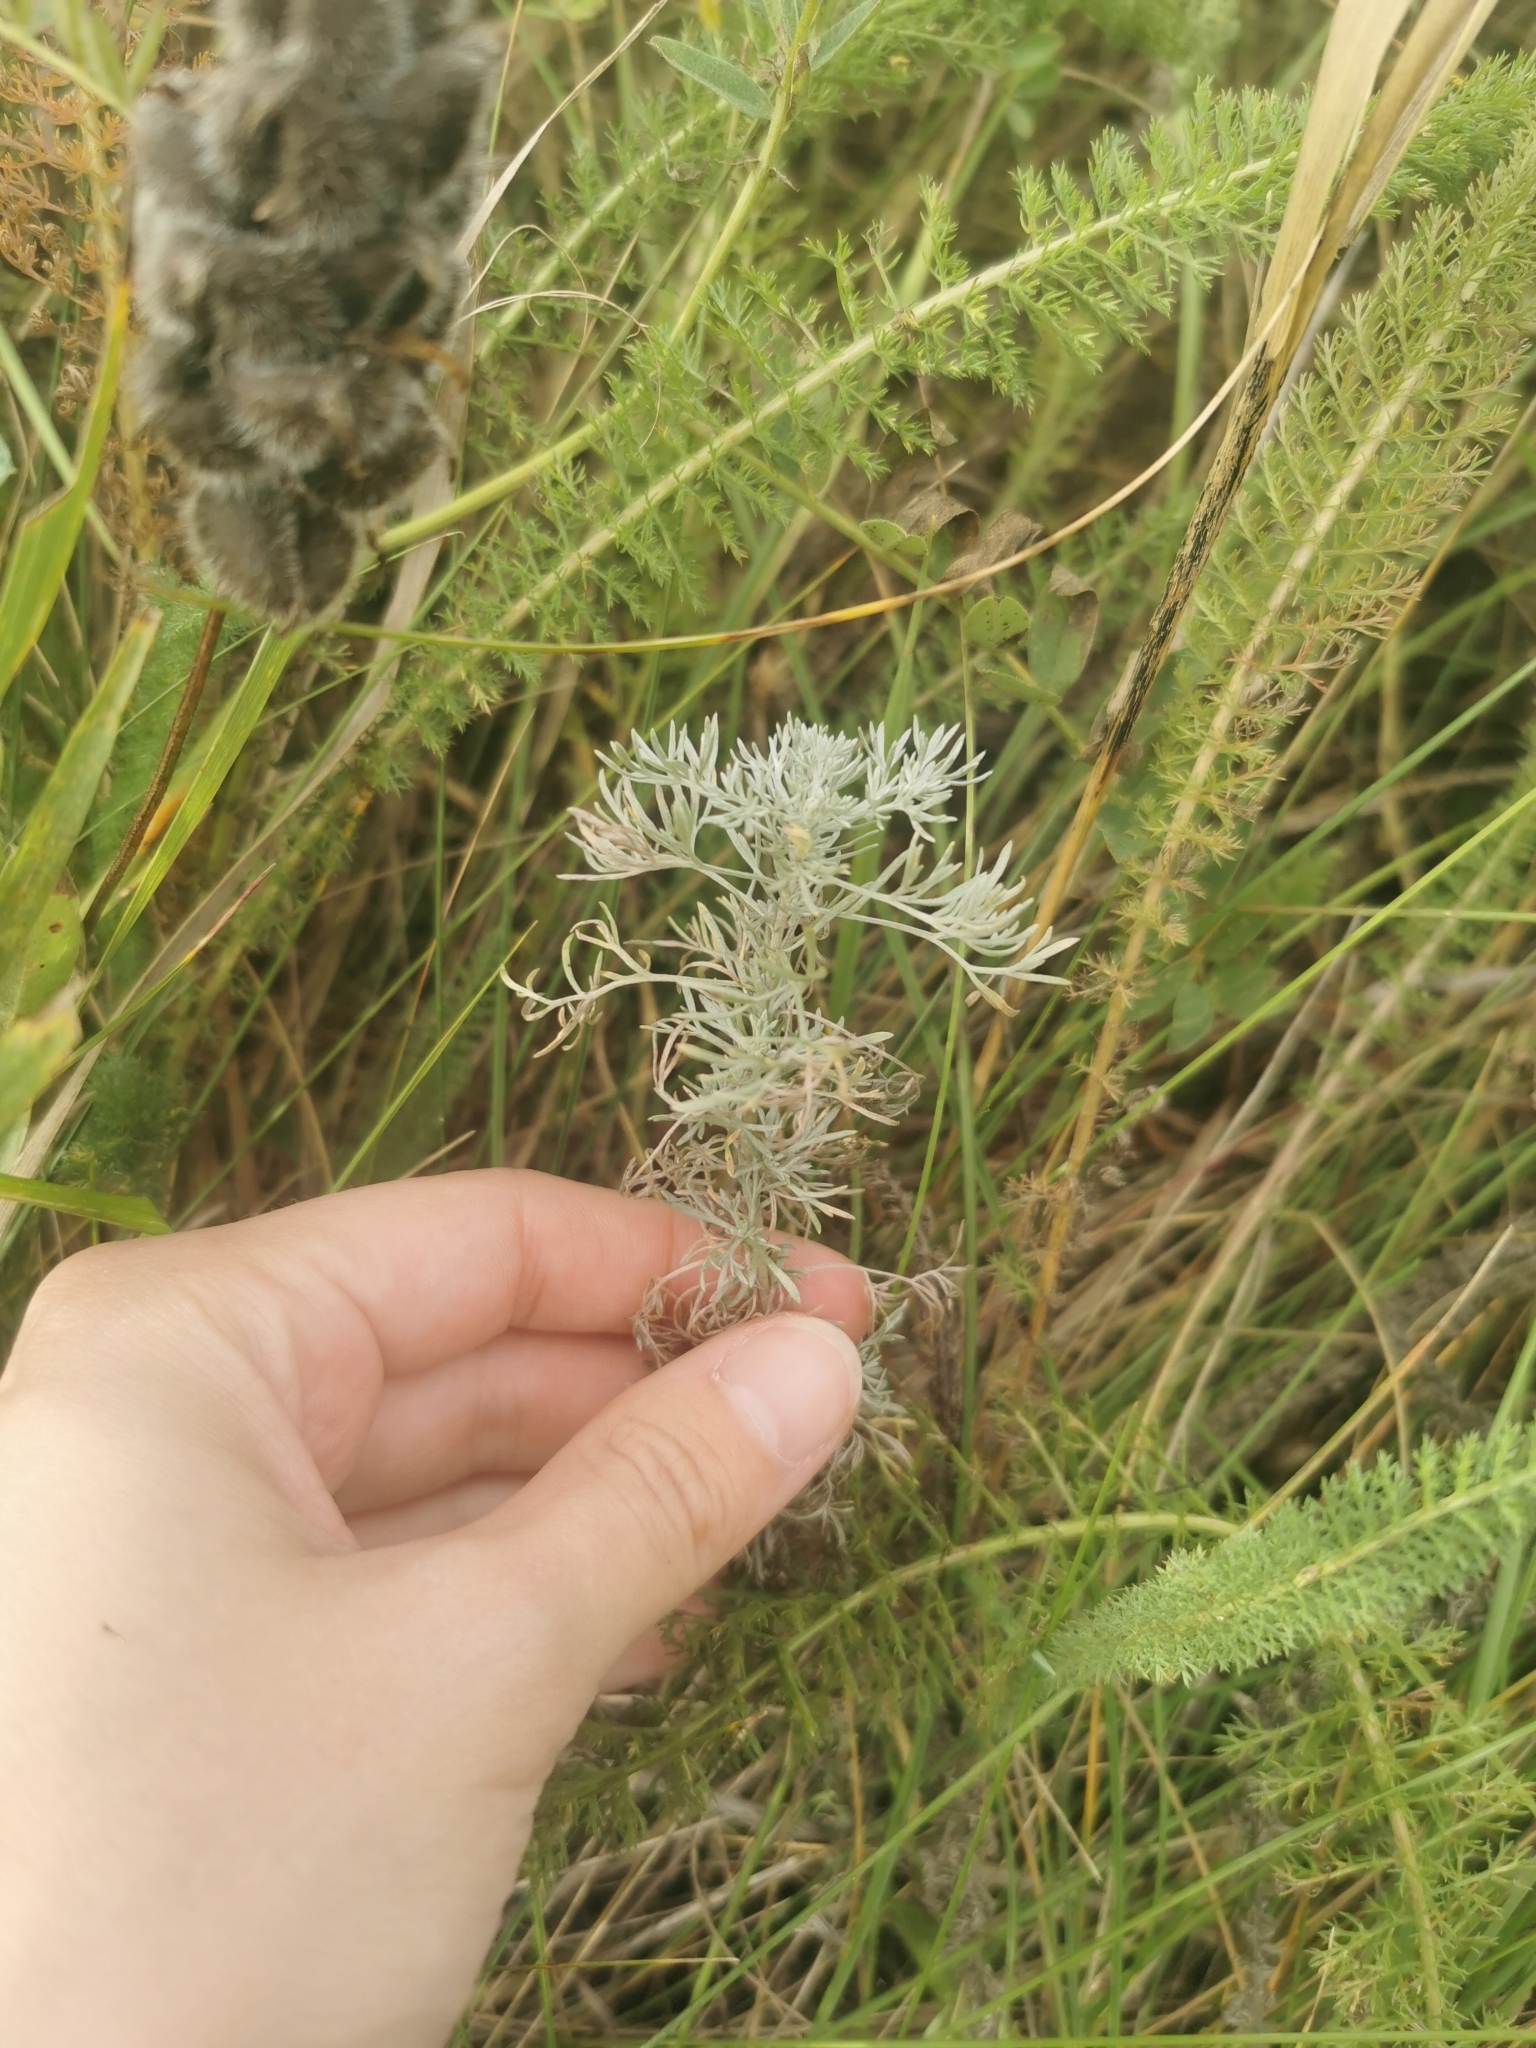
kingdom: Plantae
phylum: Tracheophyta
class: Magnoliopsida
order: Asterales
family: Asteraceae
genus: Artemisia
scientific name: Artemisia austriaca
